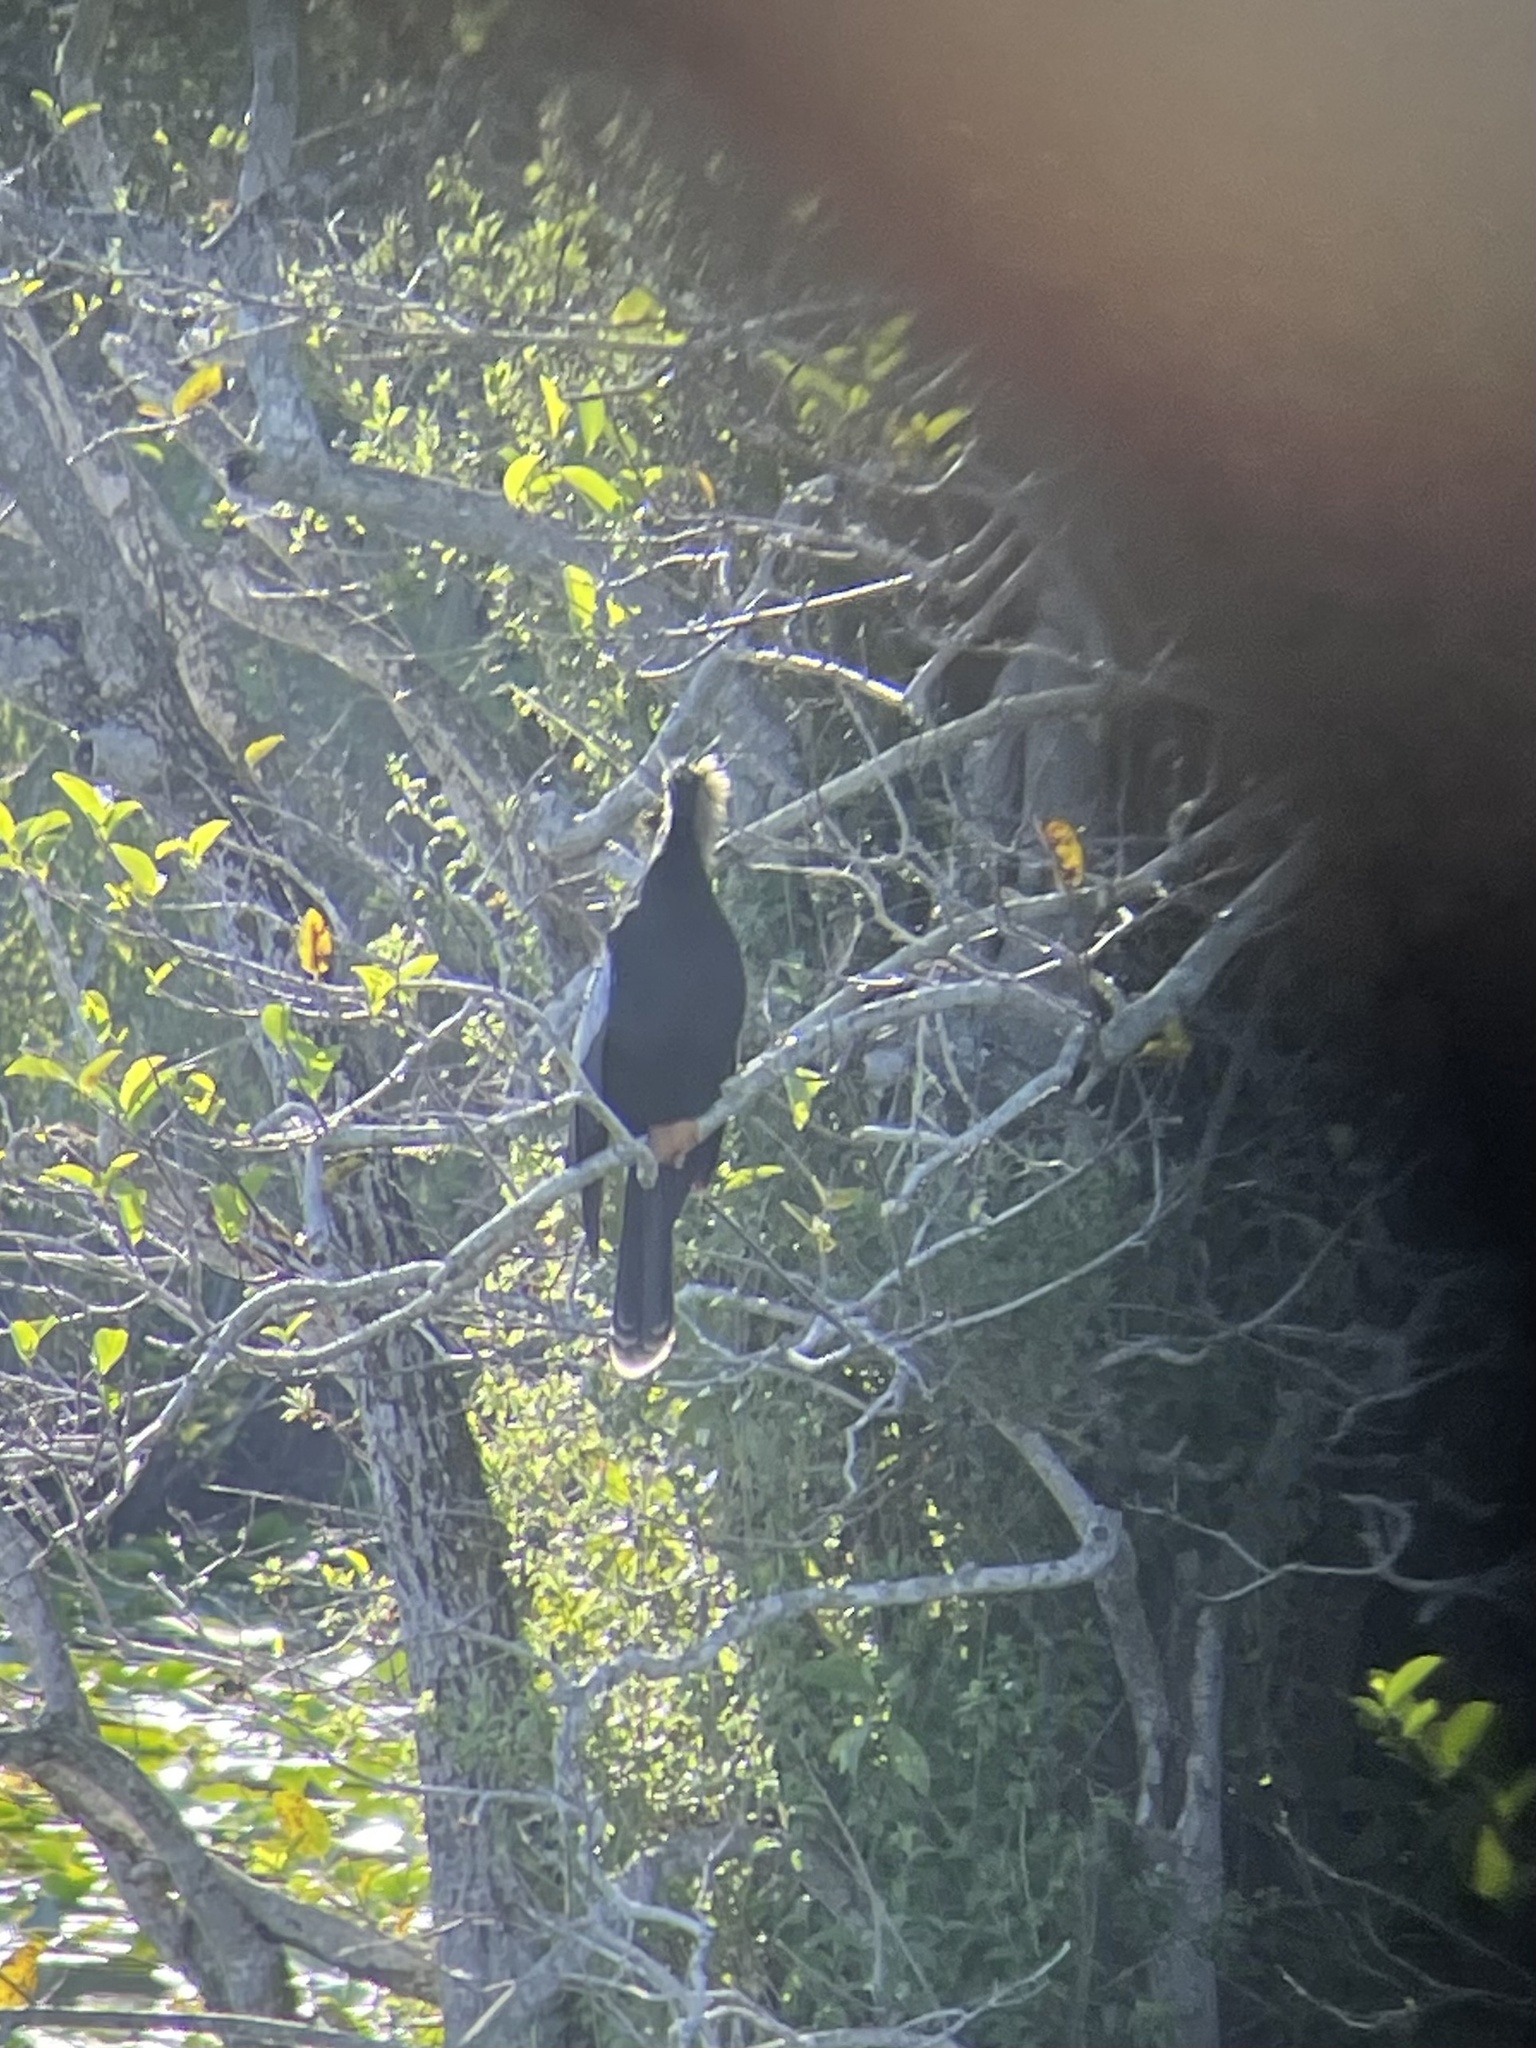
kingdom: Animalia
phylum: Chordata
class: Aves
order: Suliformes
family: Anhingidae
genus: Anhinga
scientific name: Anhinga anhinga
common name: Anhinga
